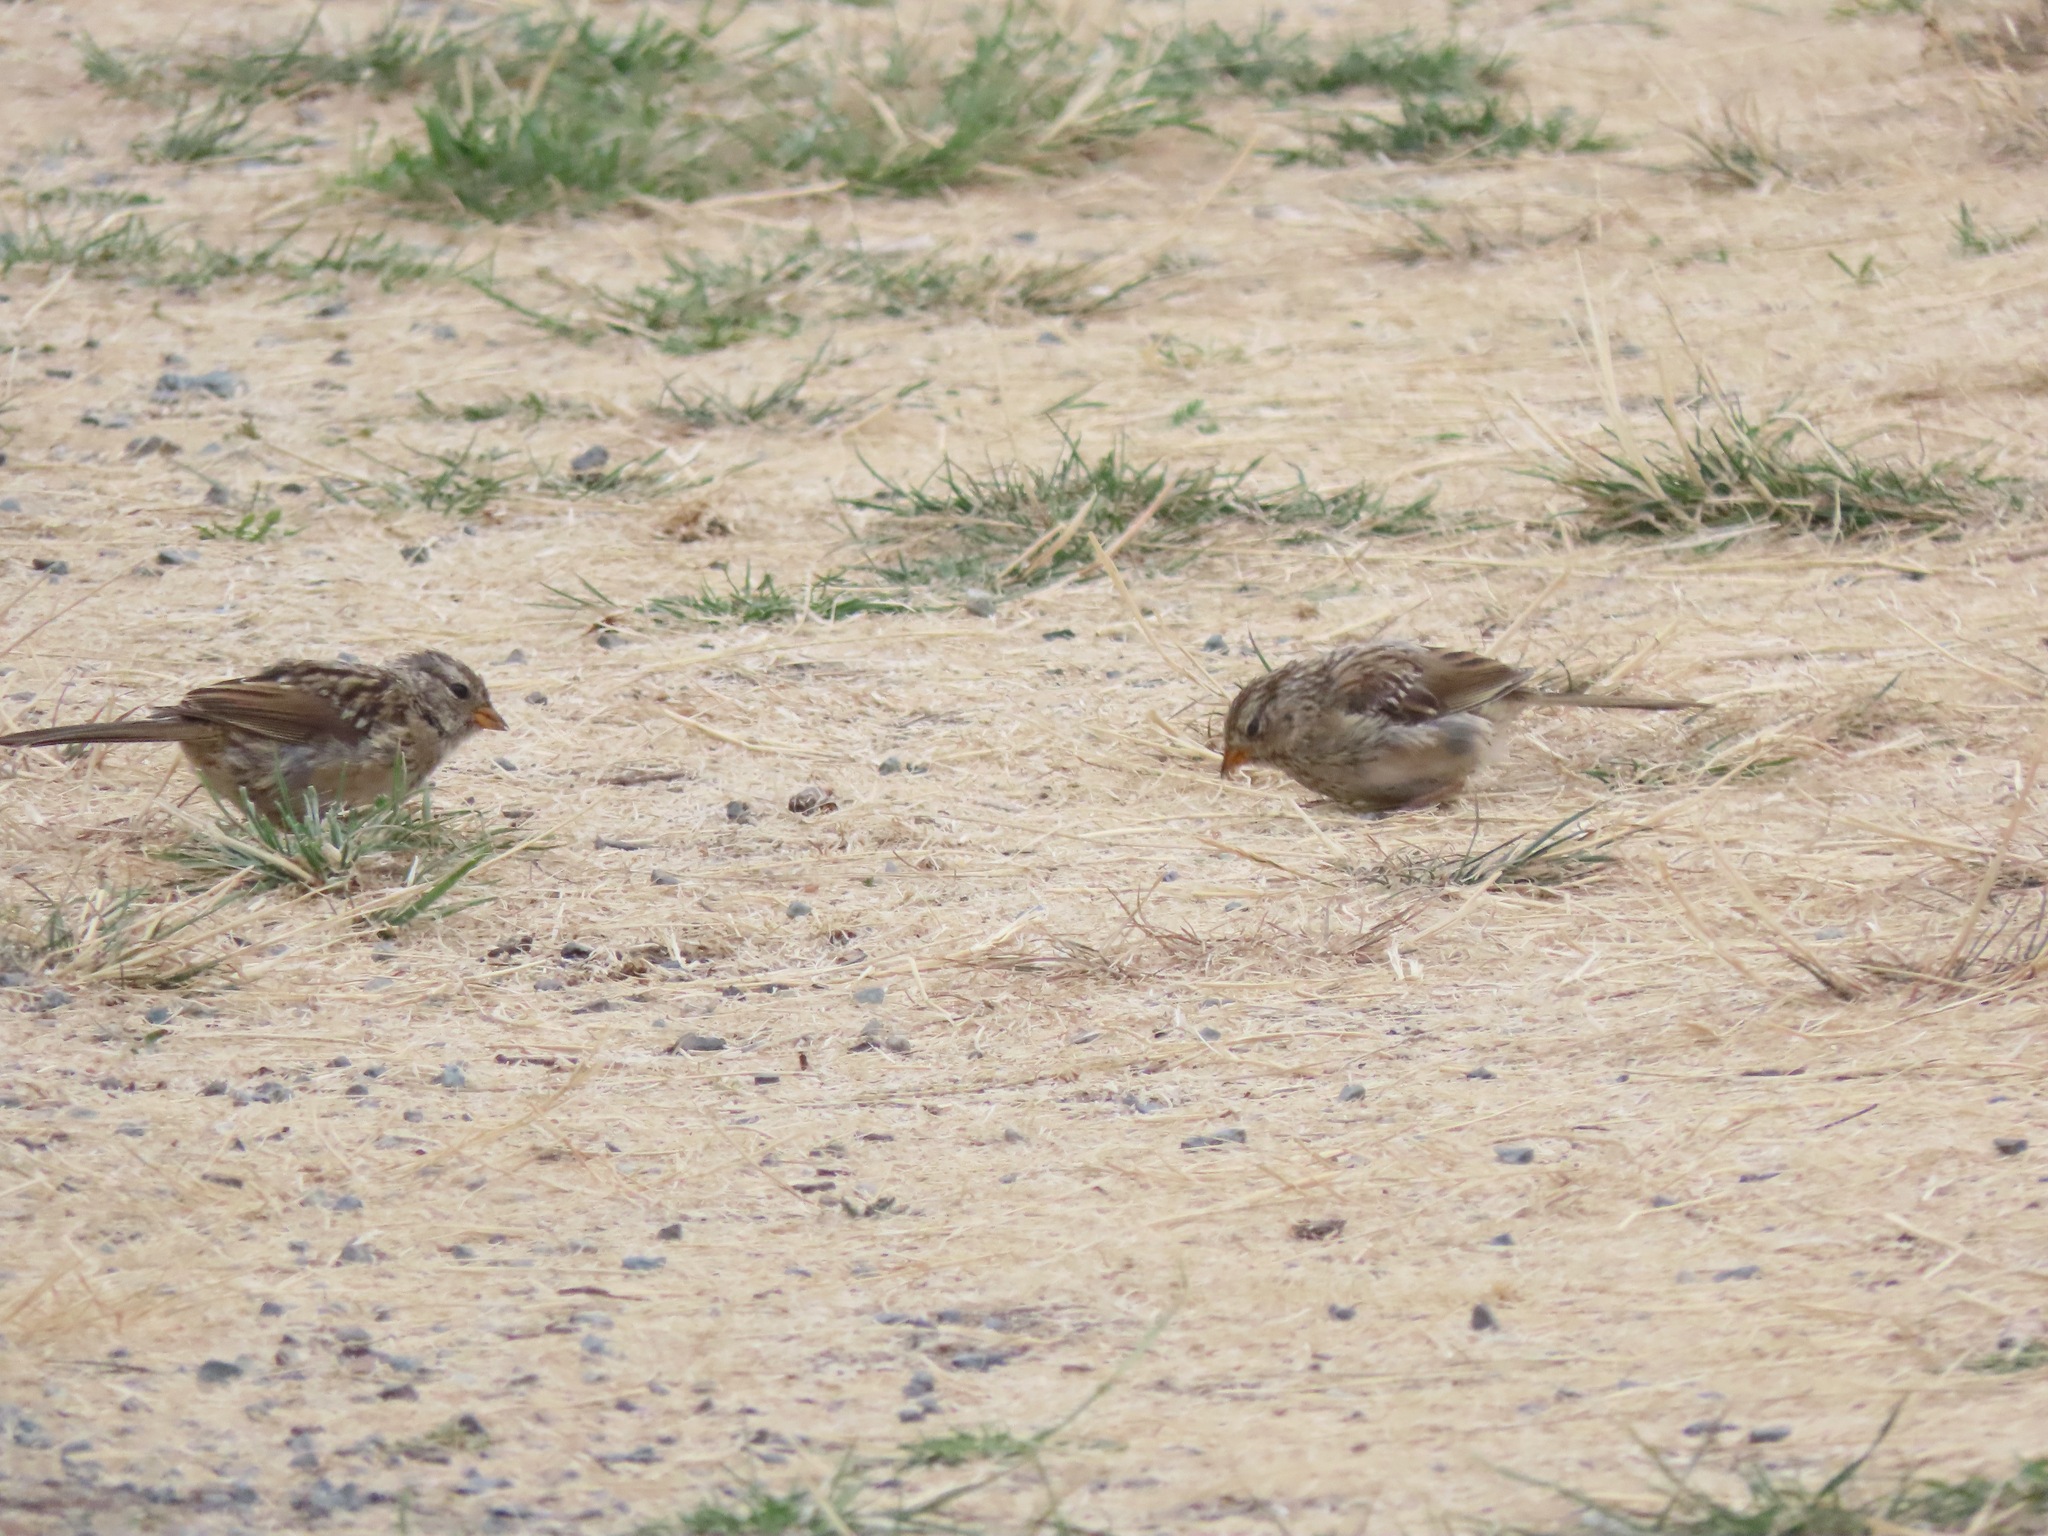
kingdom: Animalia
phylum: Chordata
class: Aves
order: Passeriformes
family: Passerellidae
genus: Zonotrichia
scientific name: Zonotrichia leucophrys
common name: White-crowned sparrow
